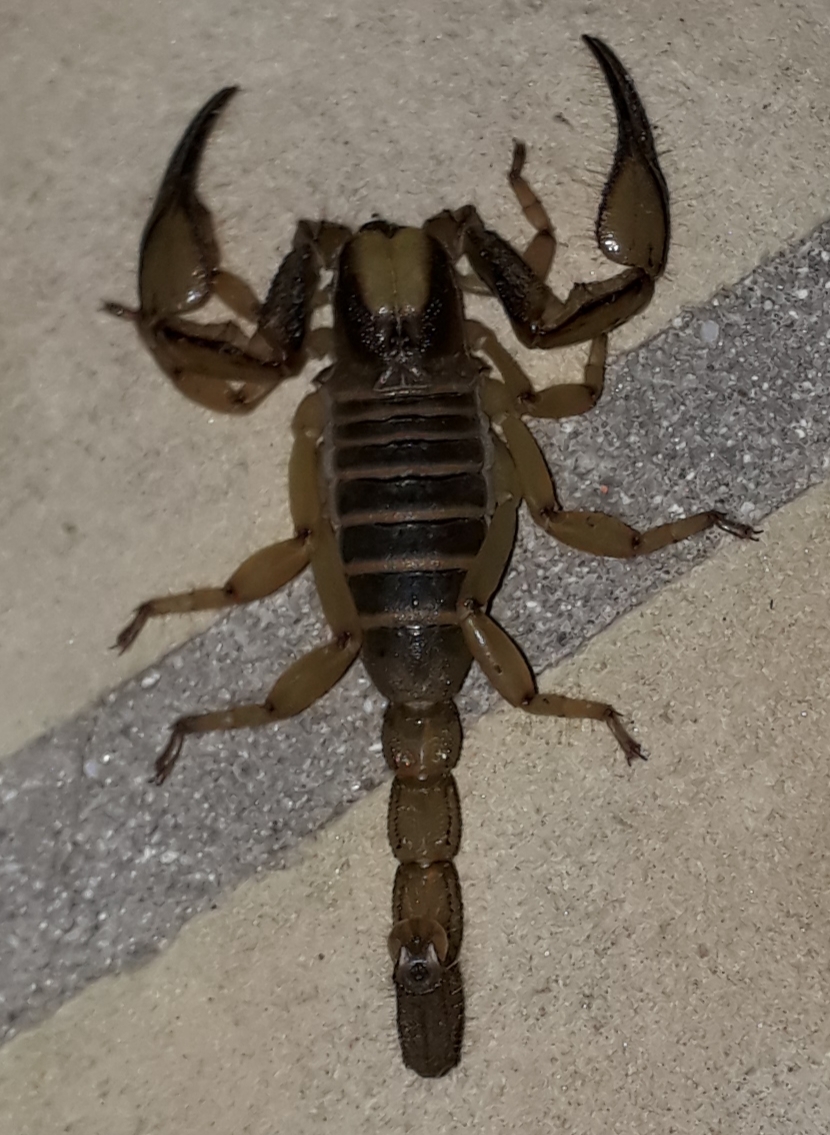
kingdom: Animalia
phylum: Arthropoda
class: Arachnida
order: Scorpiones
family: Scorpionidae
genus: Opistophthalmus
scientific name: Opistophthalmus capensis
